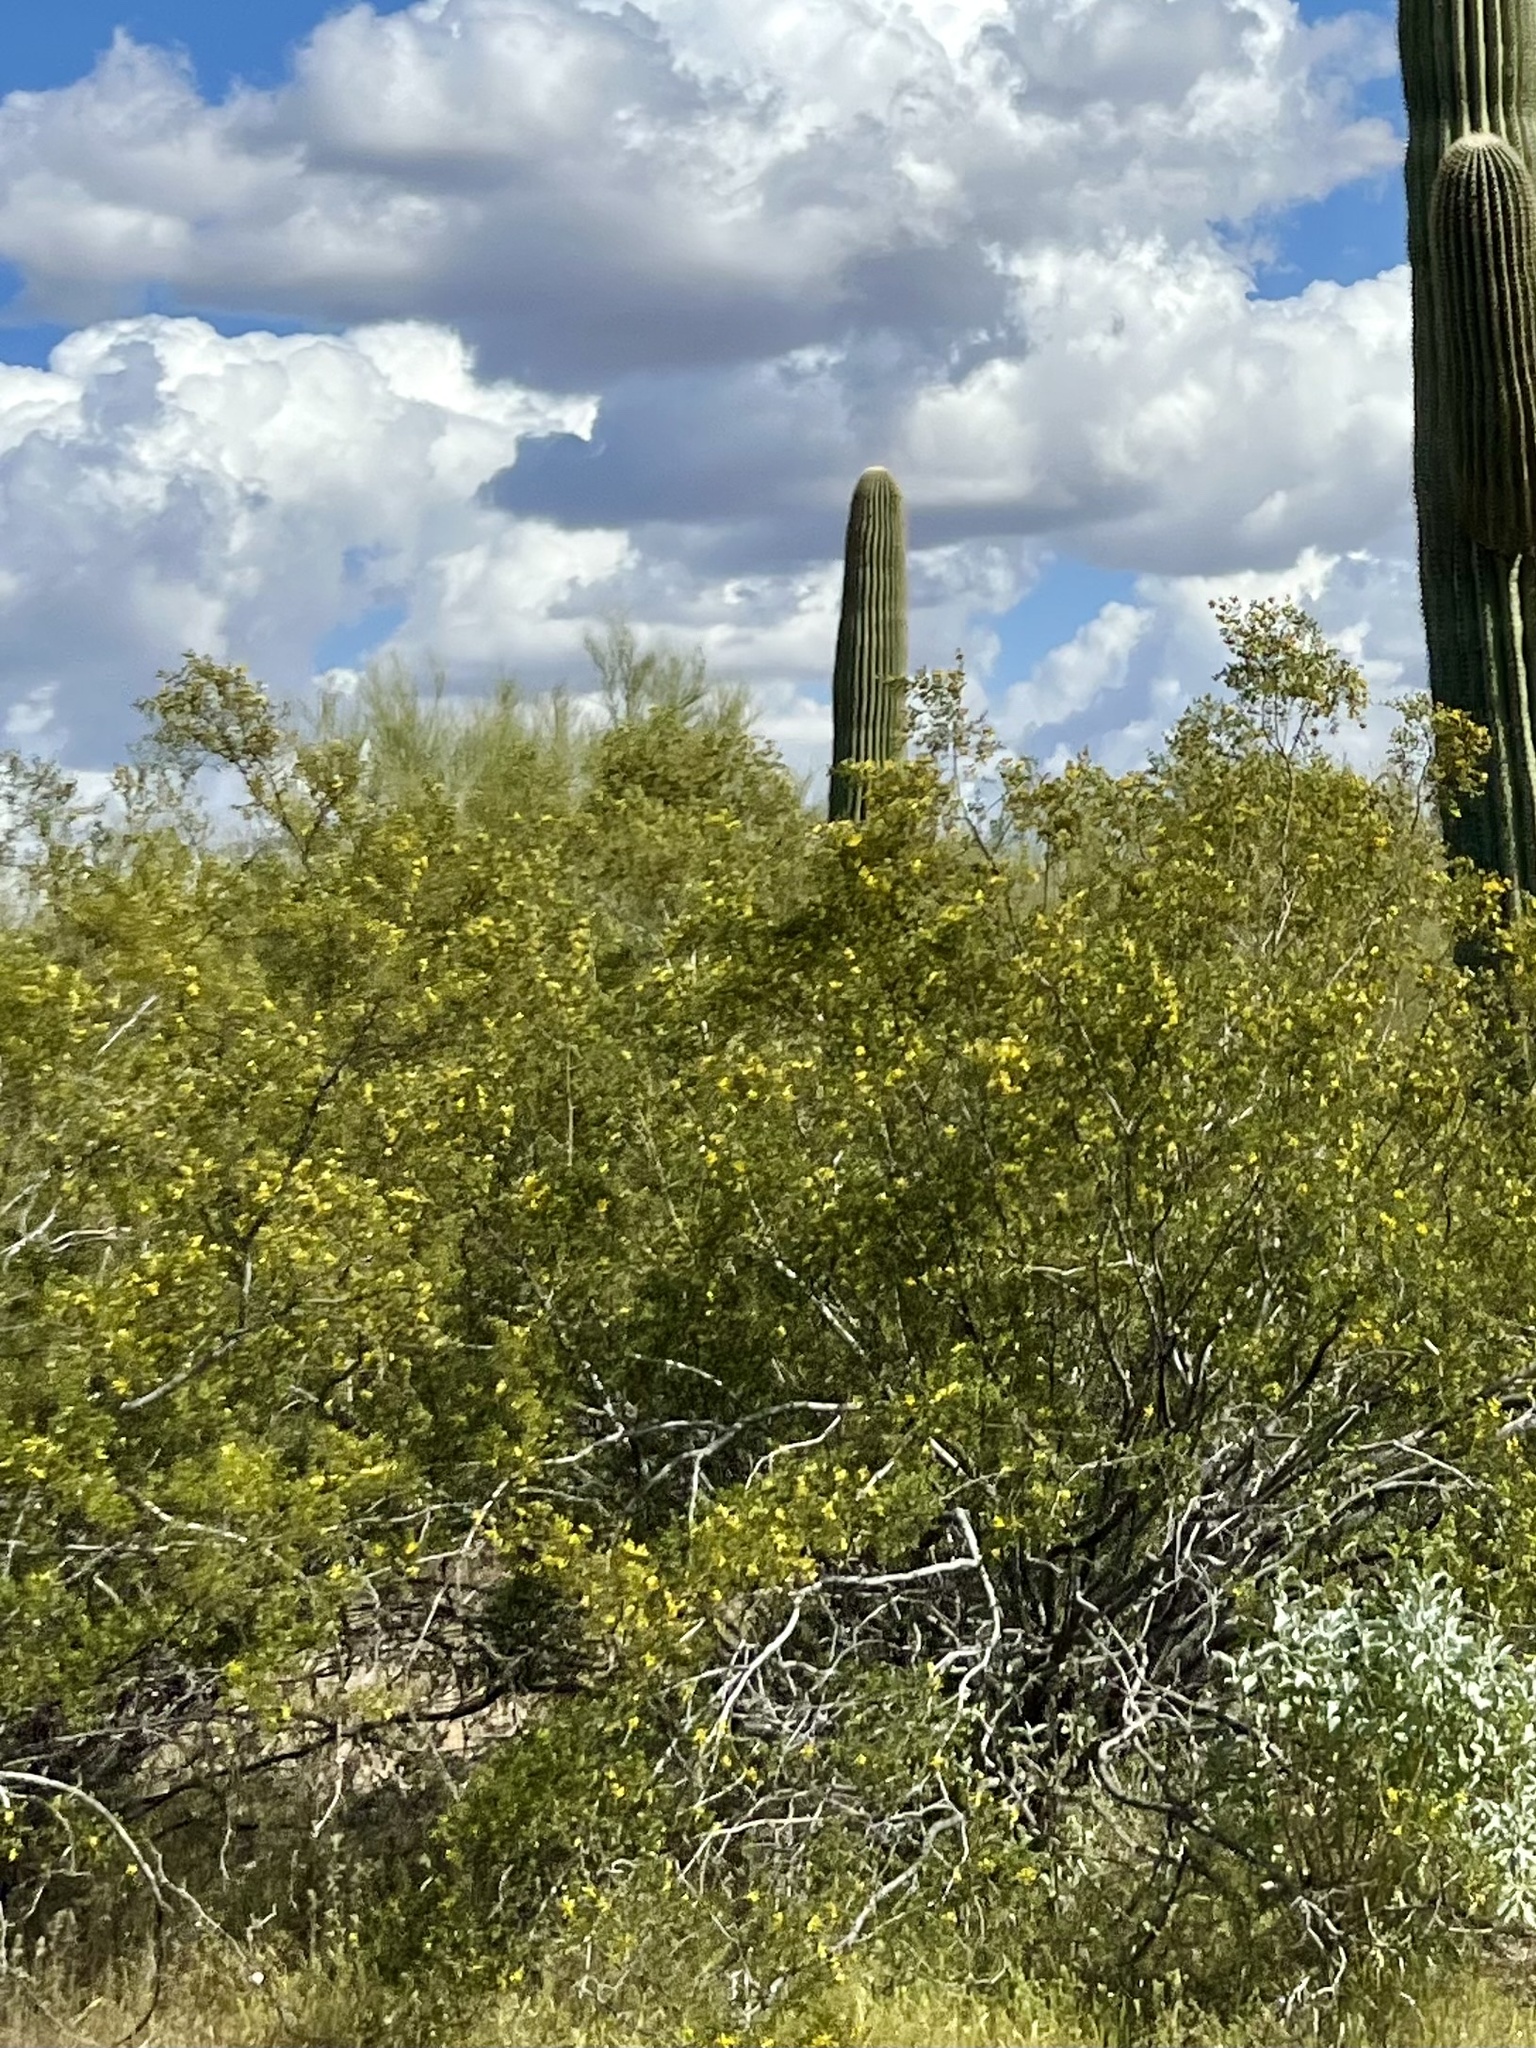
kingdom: Plantae
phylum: Tracheophyta
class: Magnoliopsida
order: Zygophyllales
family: Zygophyllaceae
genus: Larrea
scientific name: Larrea tridentata
